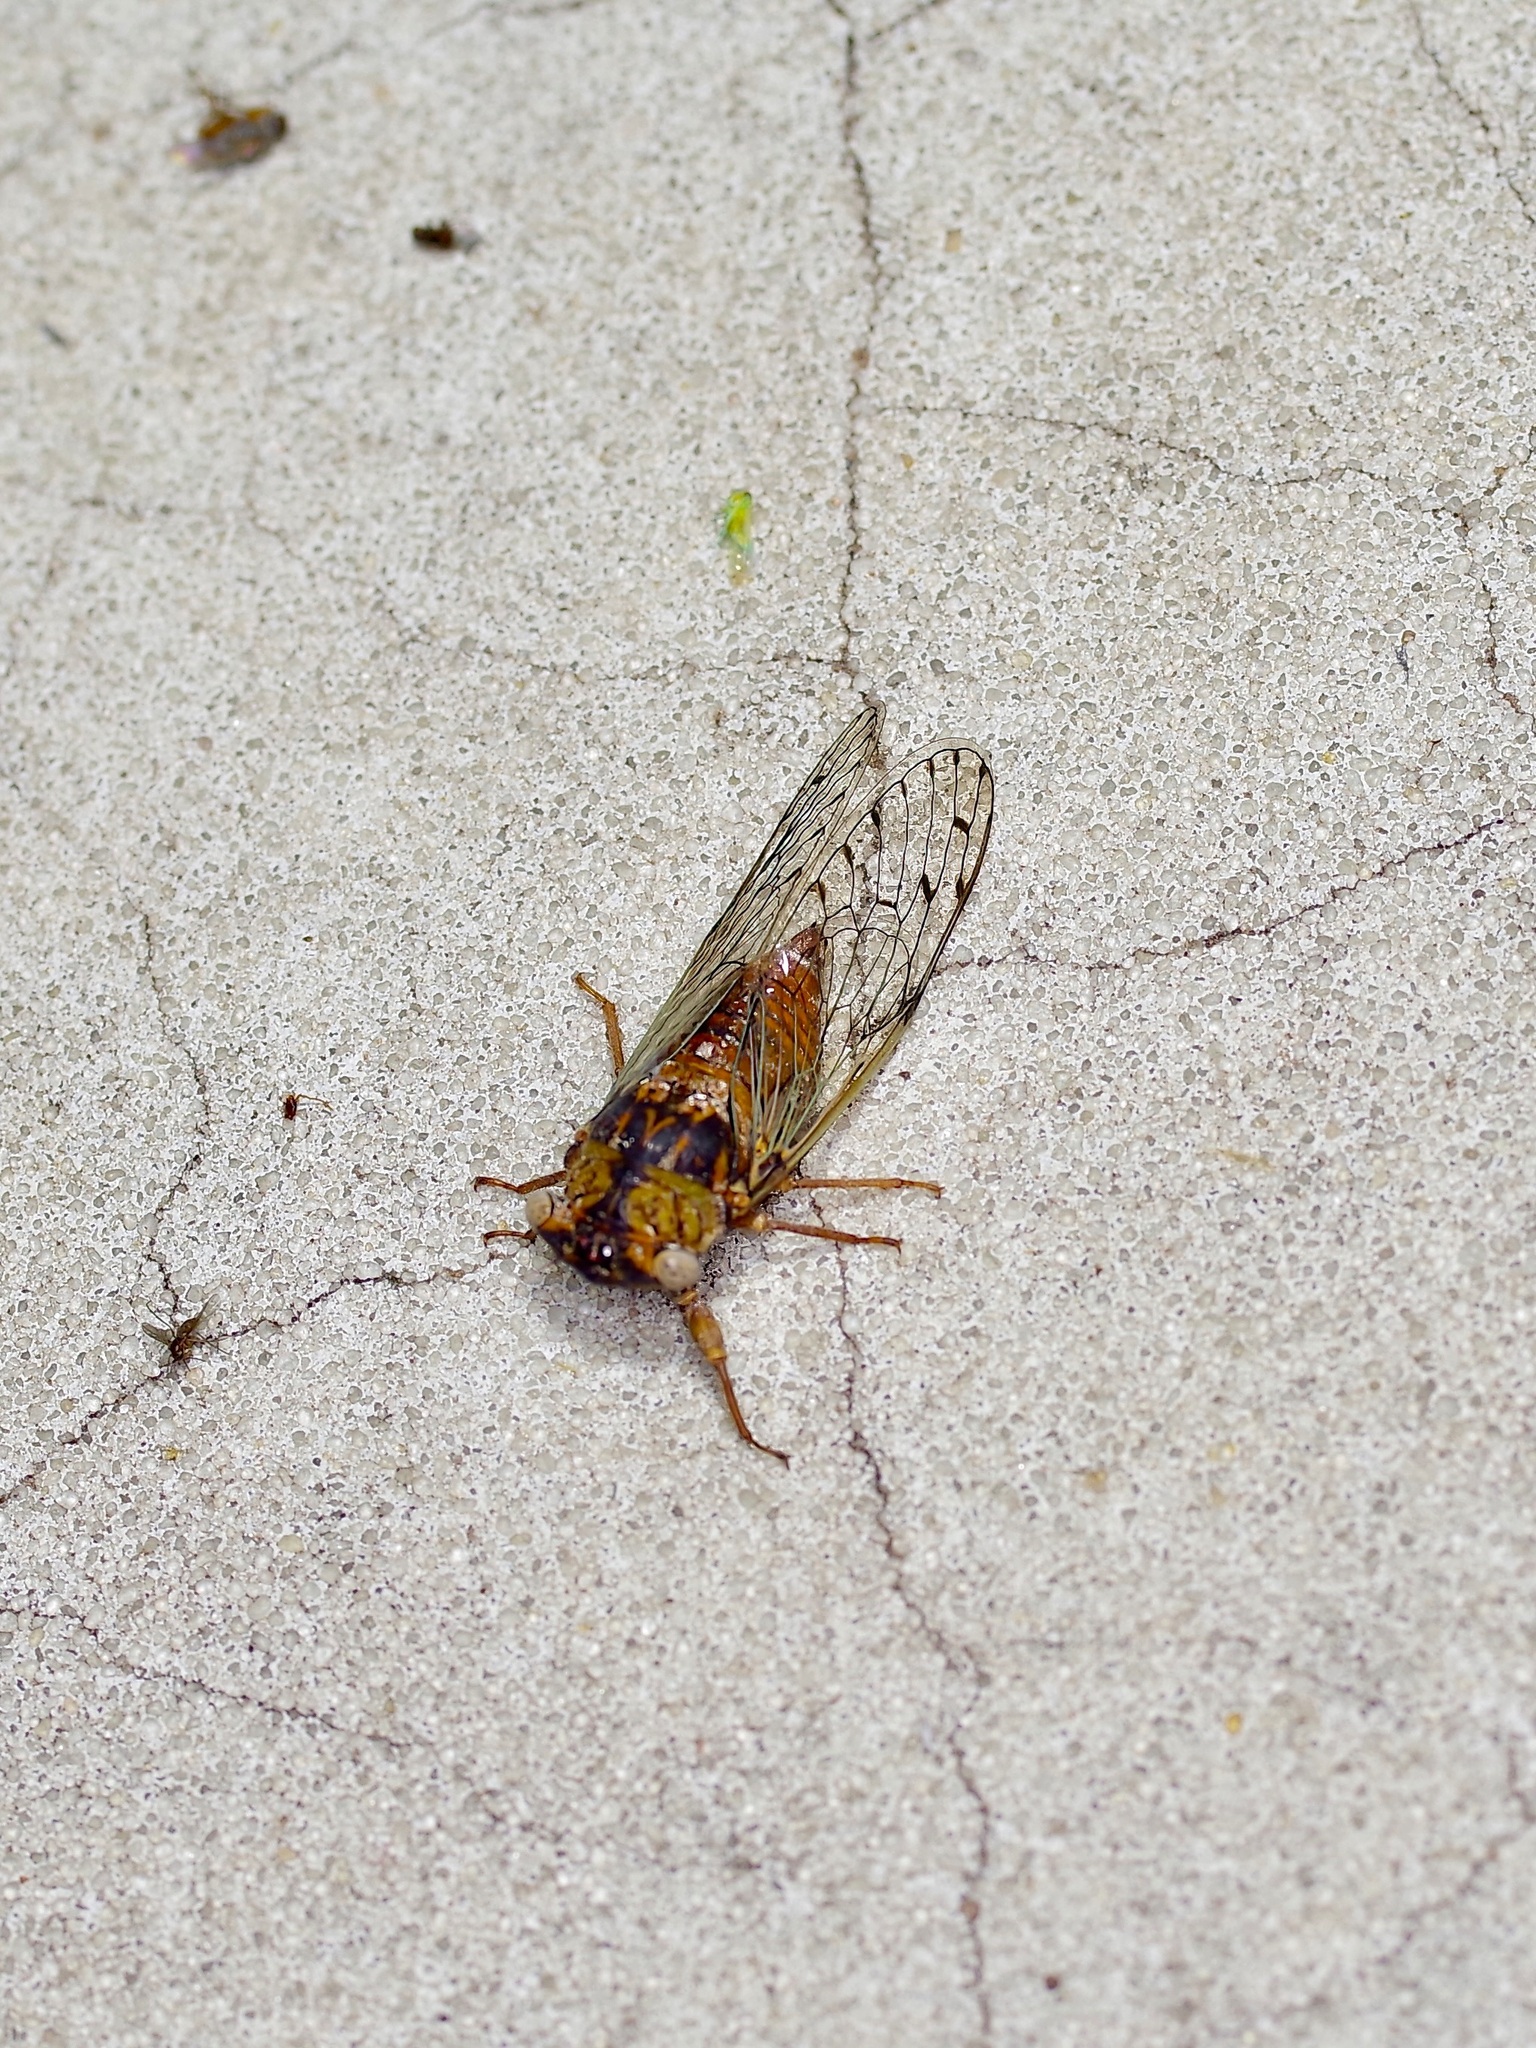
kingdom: Animalia
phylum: Arthropoda
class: Insecta
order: Hemiptera
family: Cicadidae
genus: Pacarina
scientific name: Pacarina puella
